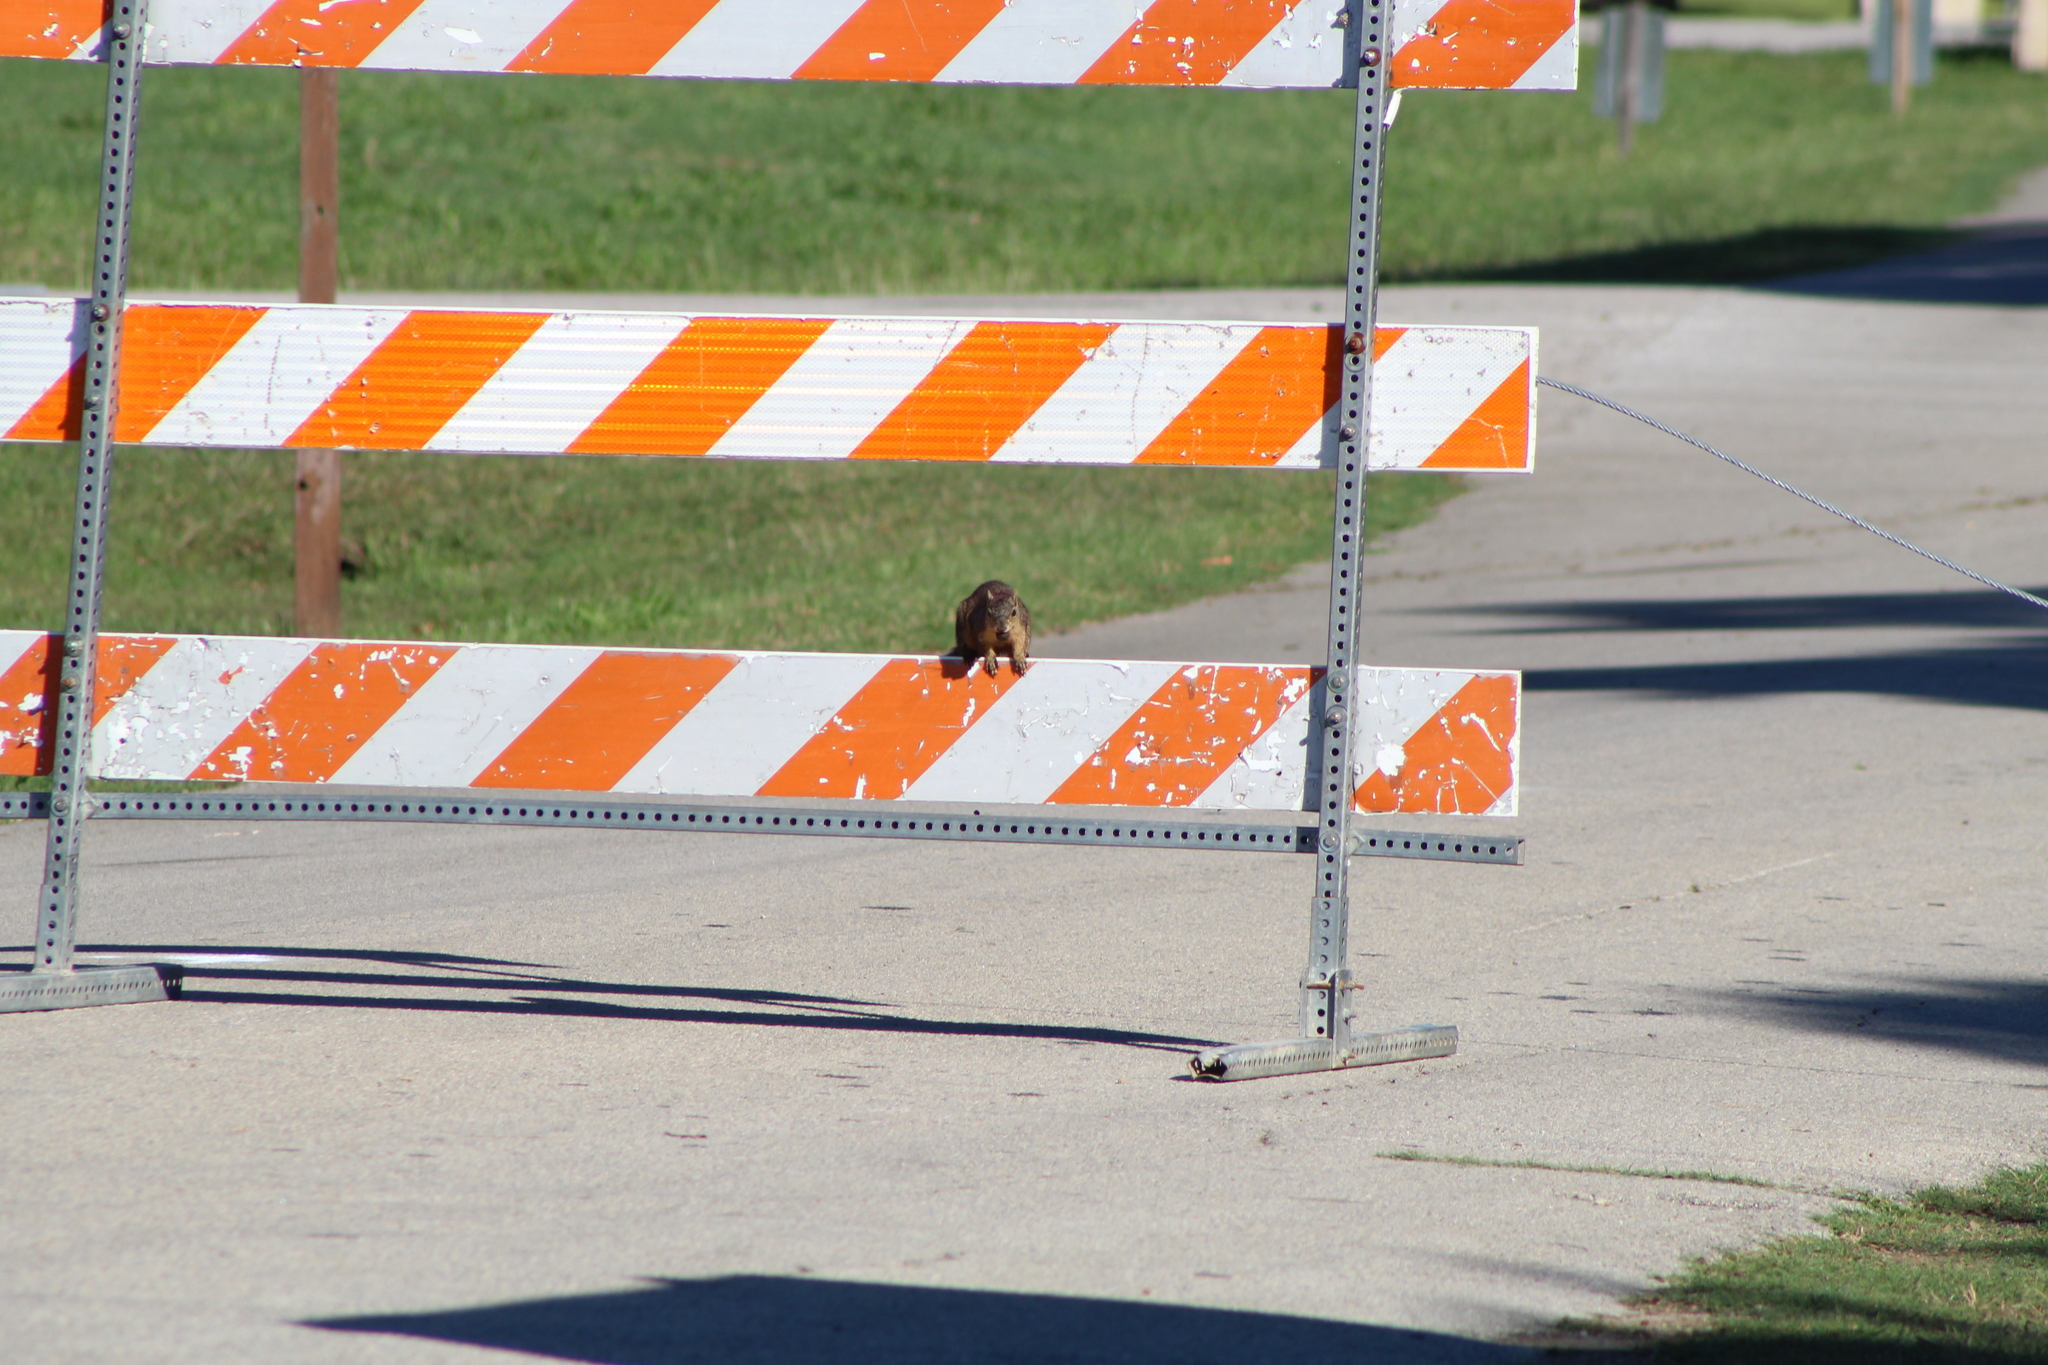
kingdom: Animalia
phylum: Chordata
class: Mammalia
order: Rodentia
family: Sciuridae
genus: Sciurus
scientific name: Sciurus niger
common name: Fox squirrel
